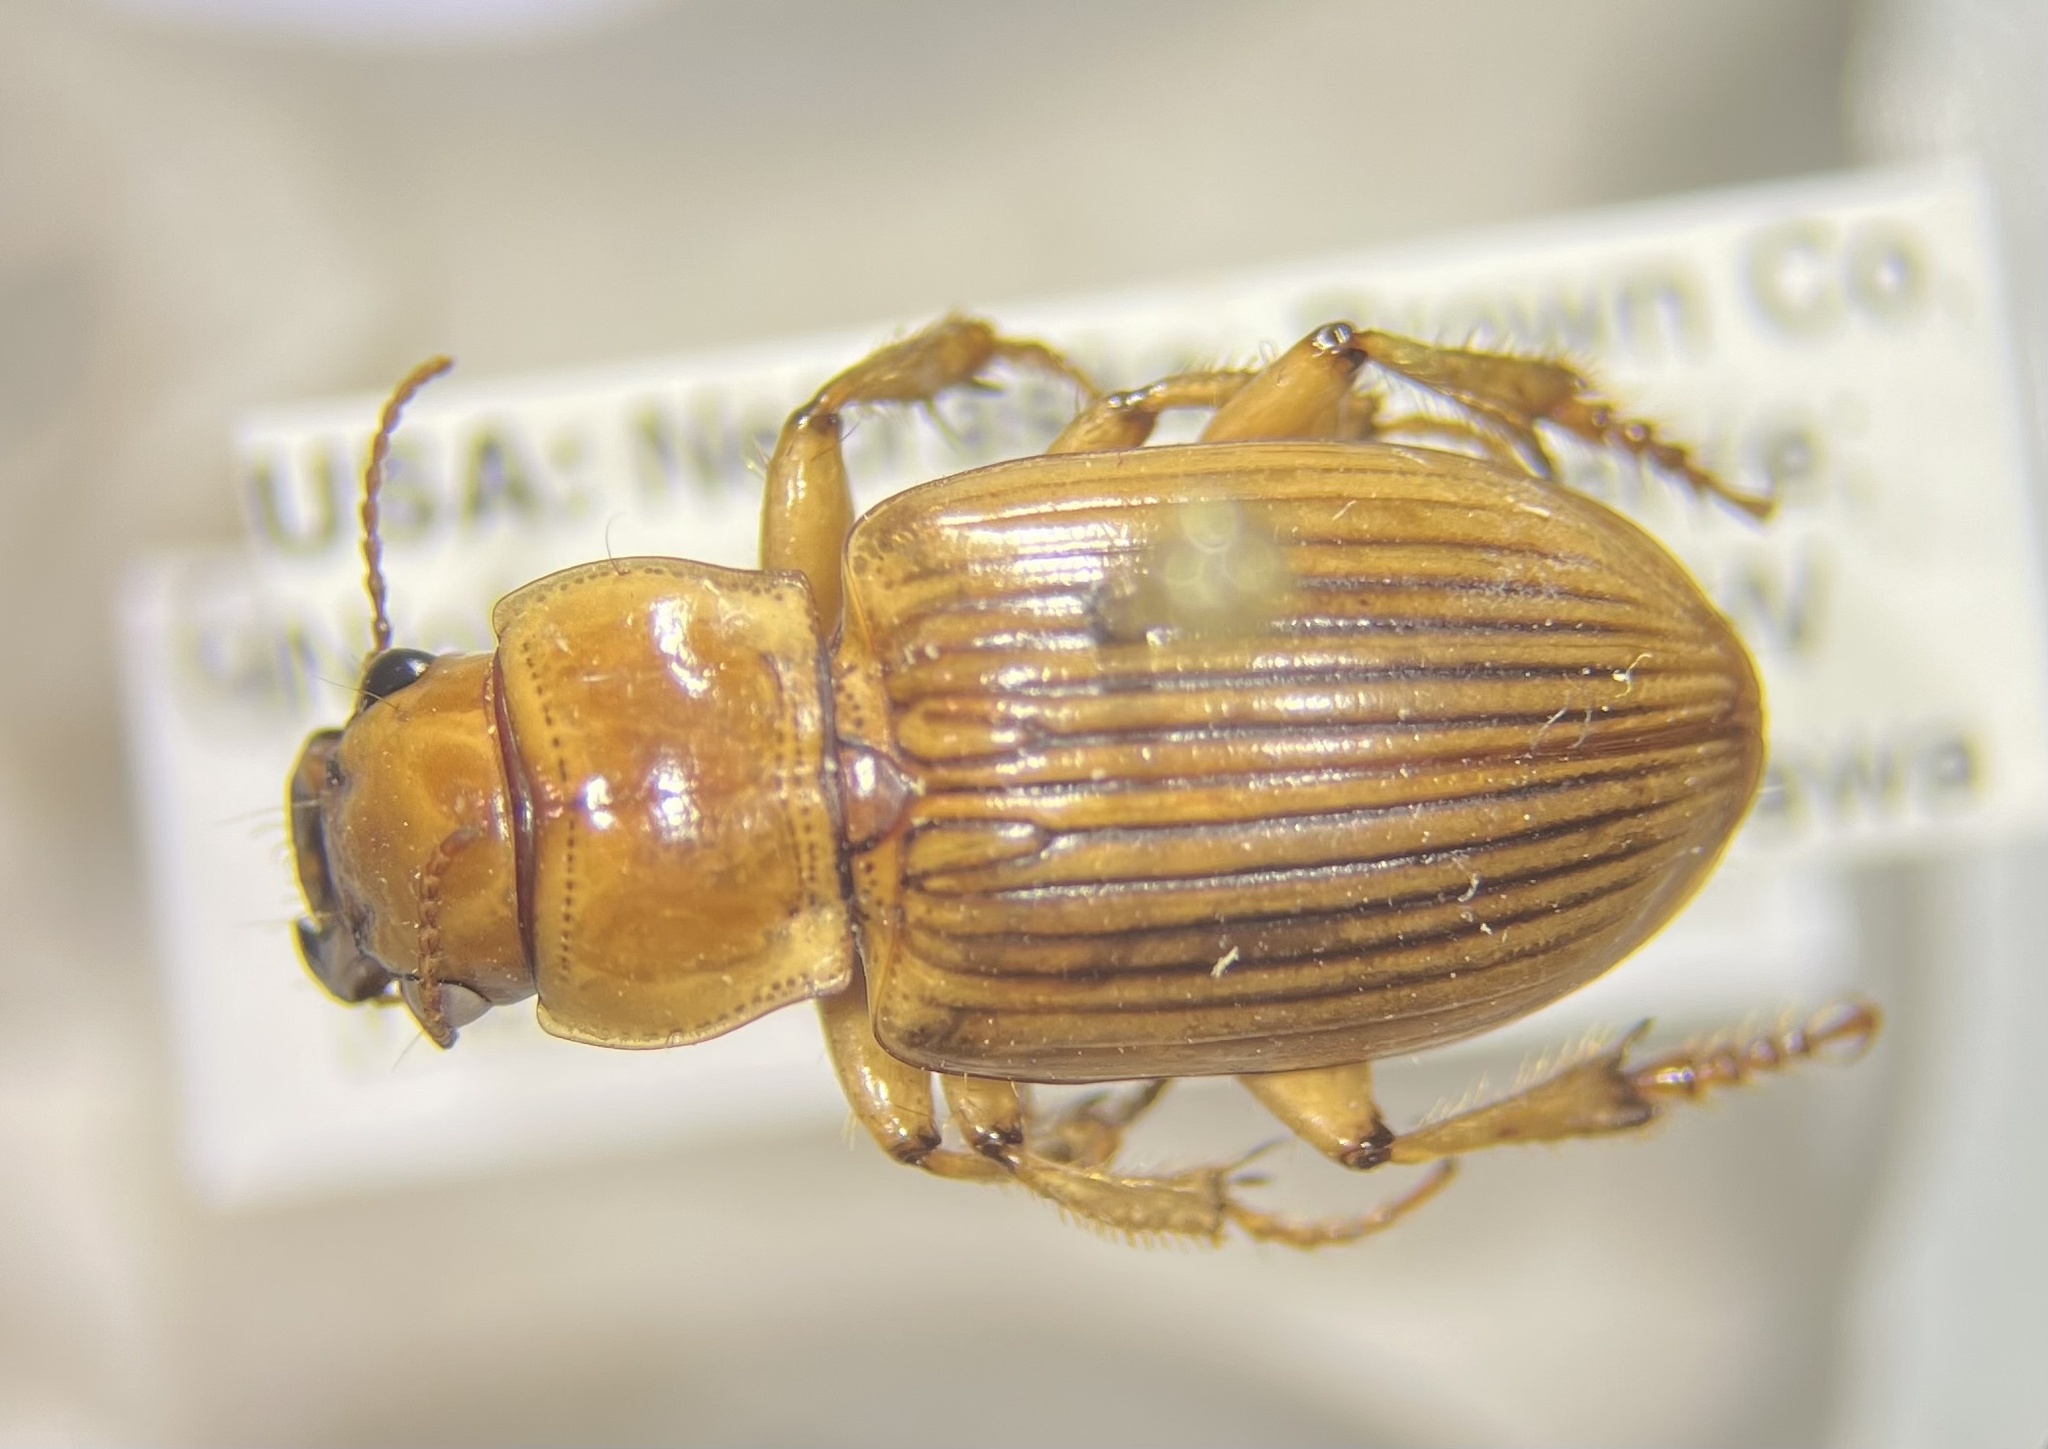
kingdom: Animalia
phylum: Arthropoda
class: Insecta
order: Coleoptera
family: Carabidae
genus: Geopinus
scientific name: Geopinus incrassatus
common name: Homely geopinus
